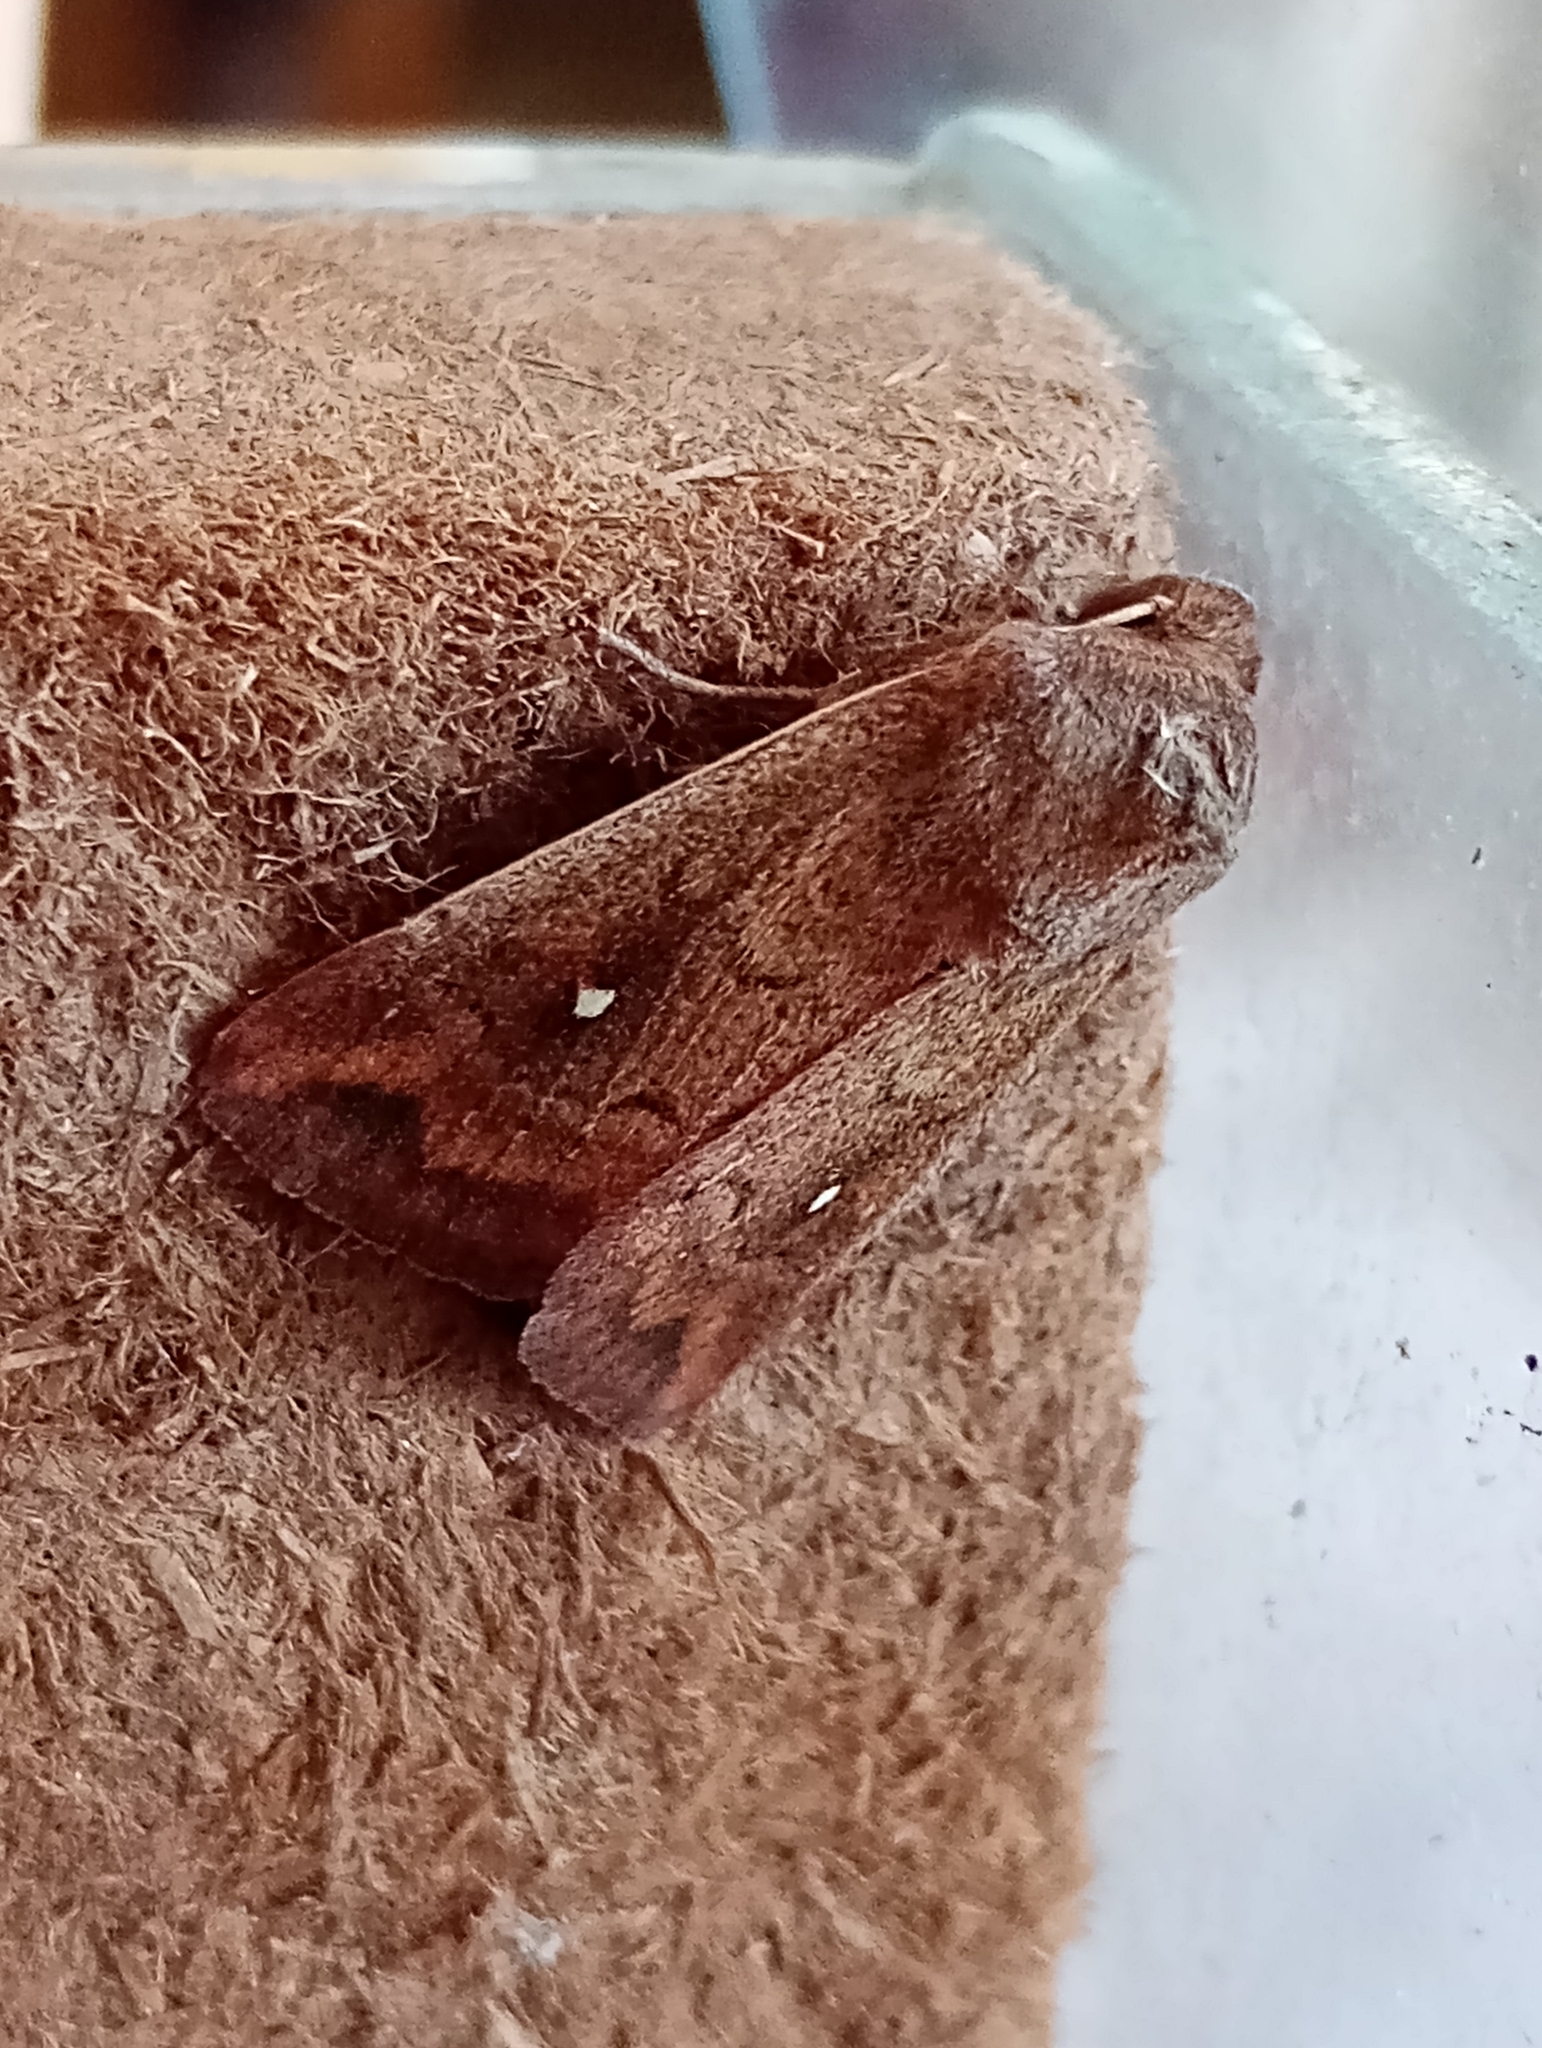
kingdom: Animalia
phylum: Arthropoda
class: Insecta
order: Lepidoptera
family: Noctuidae
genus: Mythimna
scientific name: Mythimna albipuncta
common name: White-point
